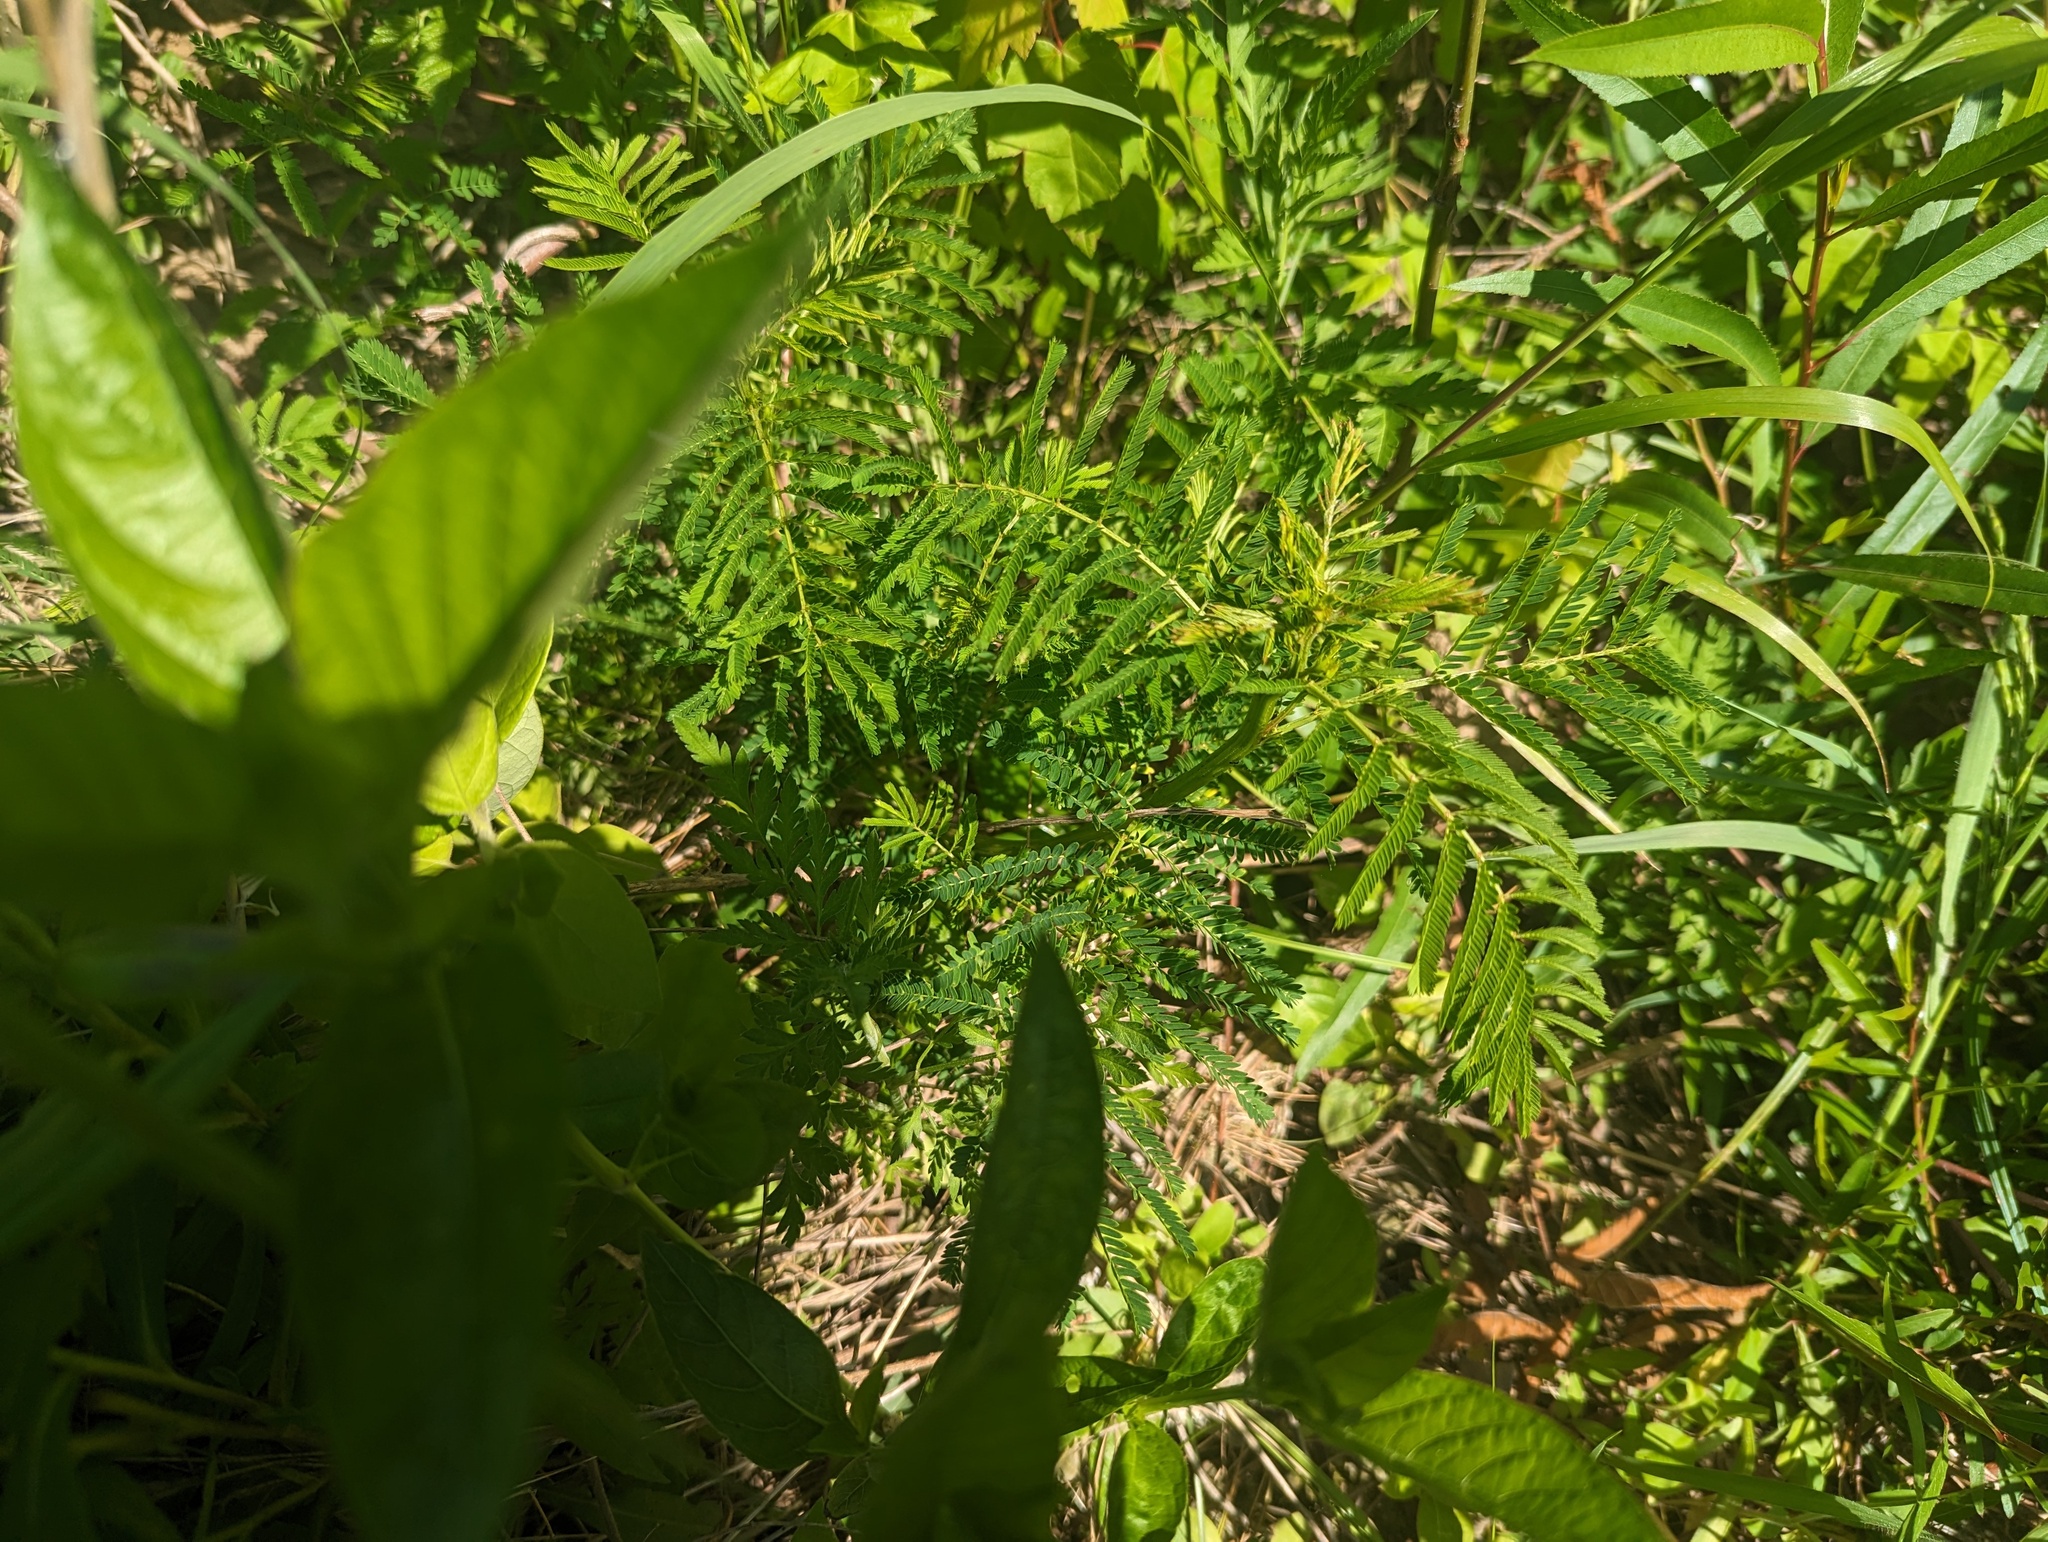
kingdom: Plantae
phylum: Tracheophyta
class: Magnoliopsida
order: Fabales
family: Fabaceae
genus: Desmanthus
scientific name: Desmanthus illinoensis
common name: Illinois bundle-flower
